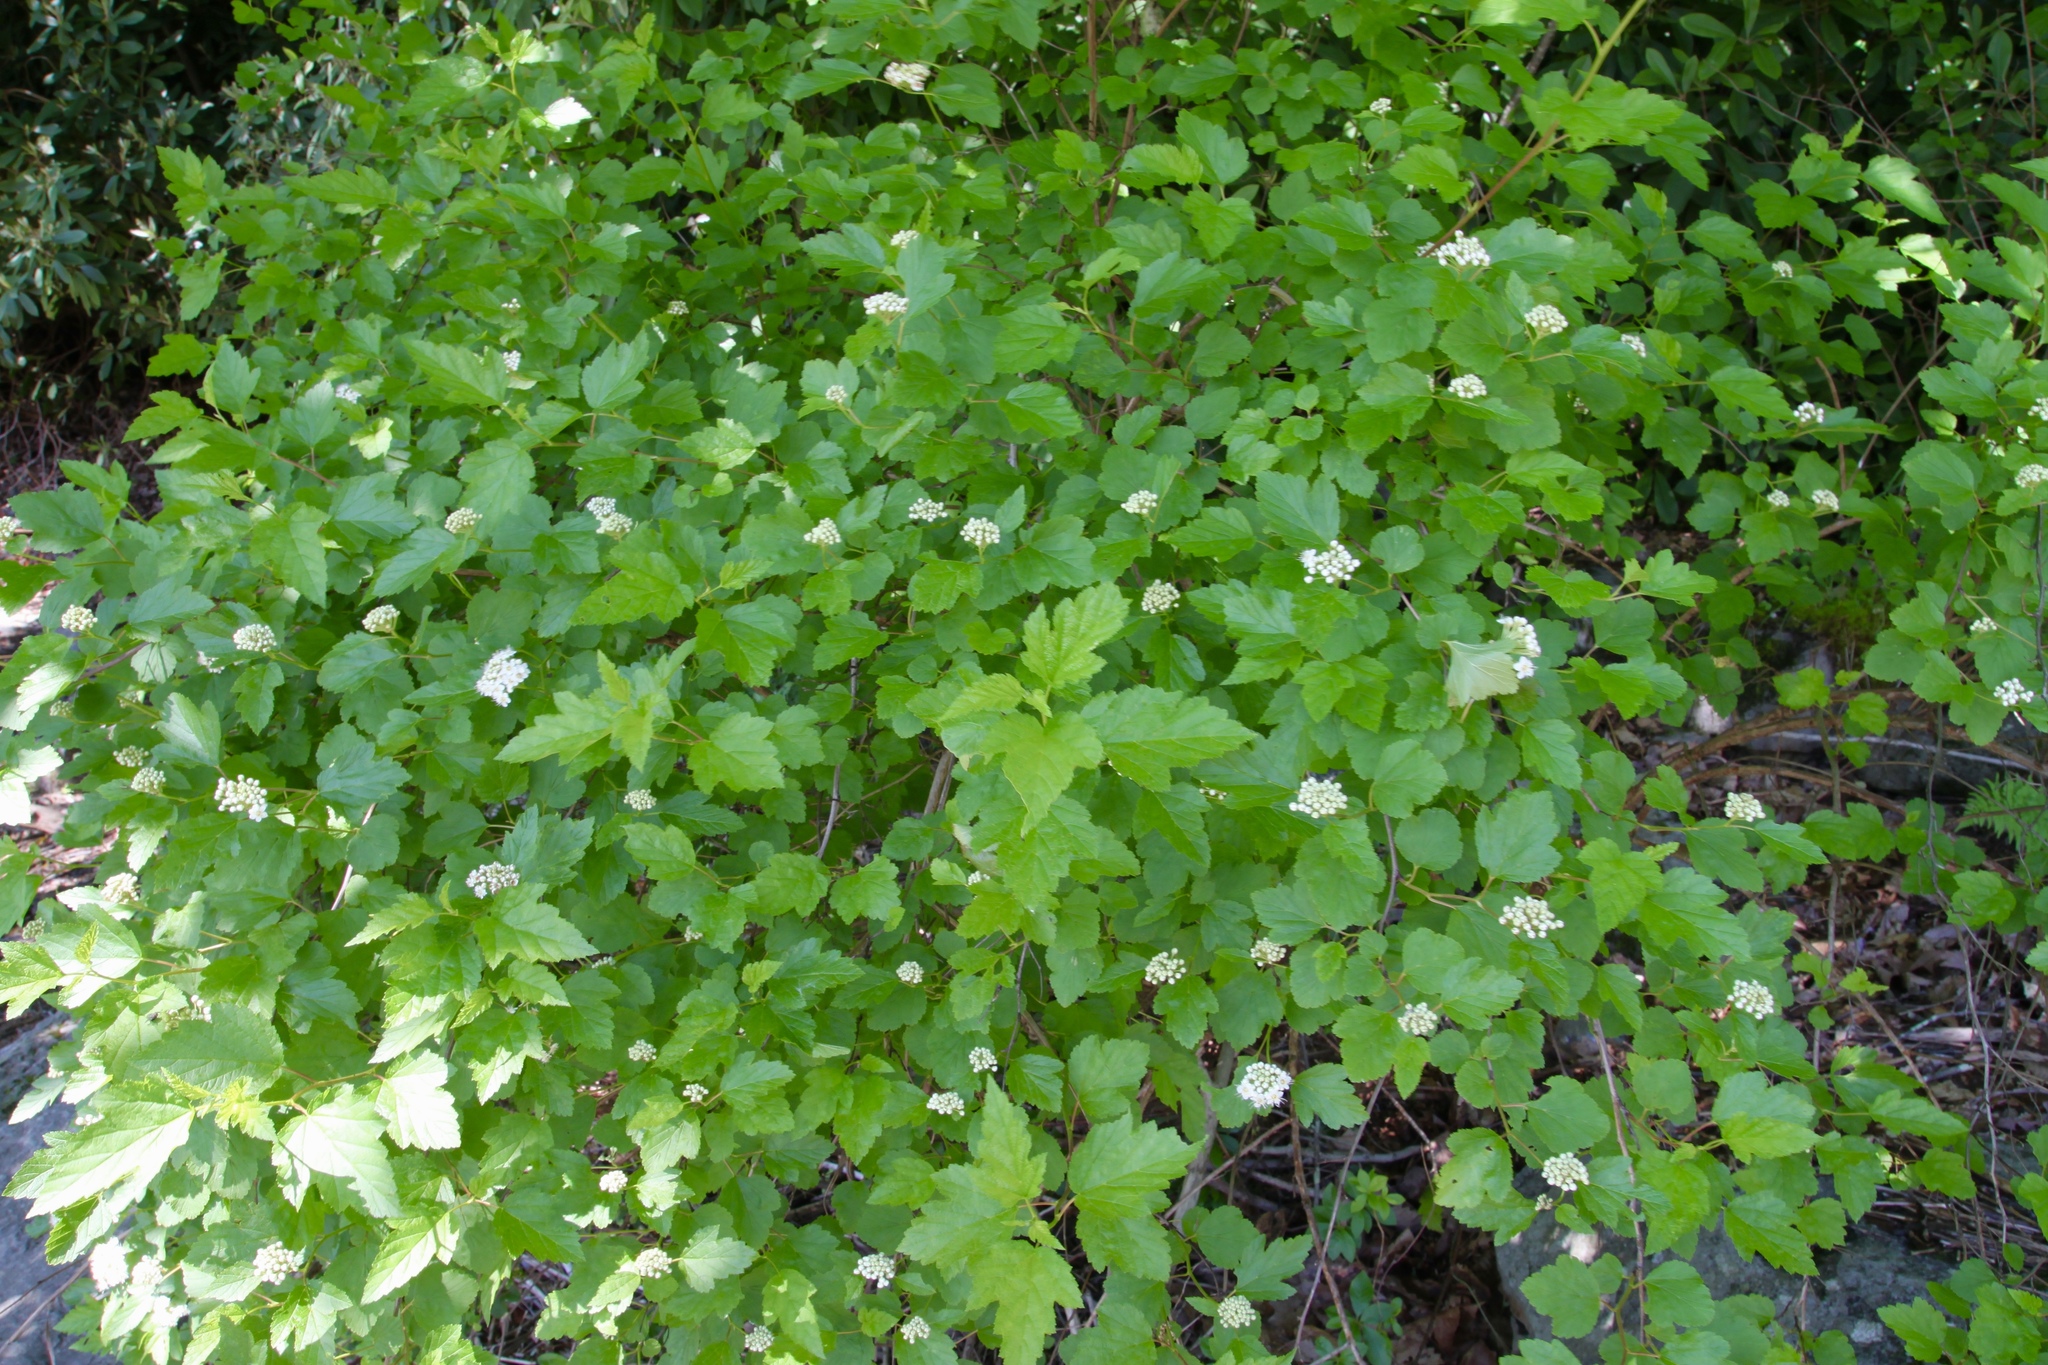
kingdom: Plantae
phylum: Tracheophyta
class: Magnoliopsida
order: Rosales
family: Rosaceae
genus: Physocarpus
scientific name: Physocarpus opulifolius
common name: Ninebark
